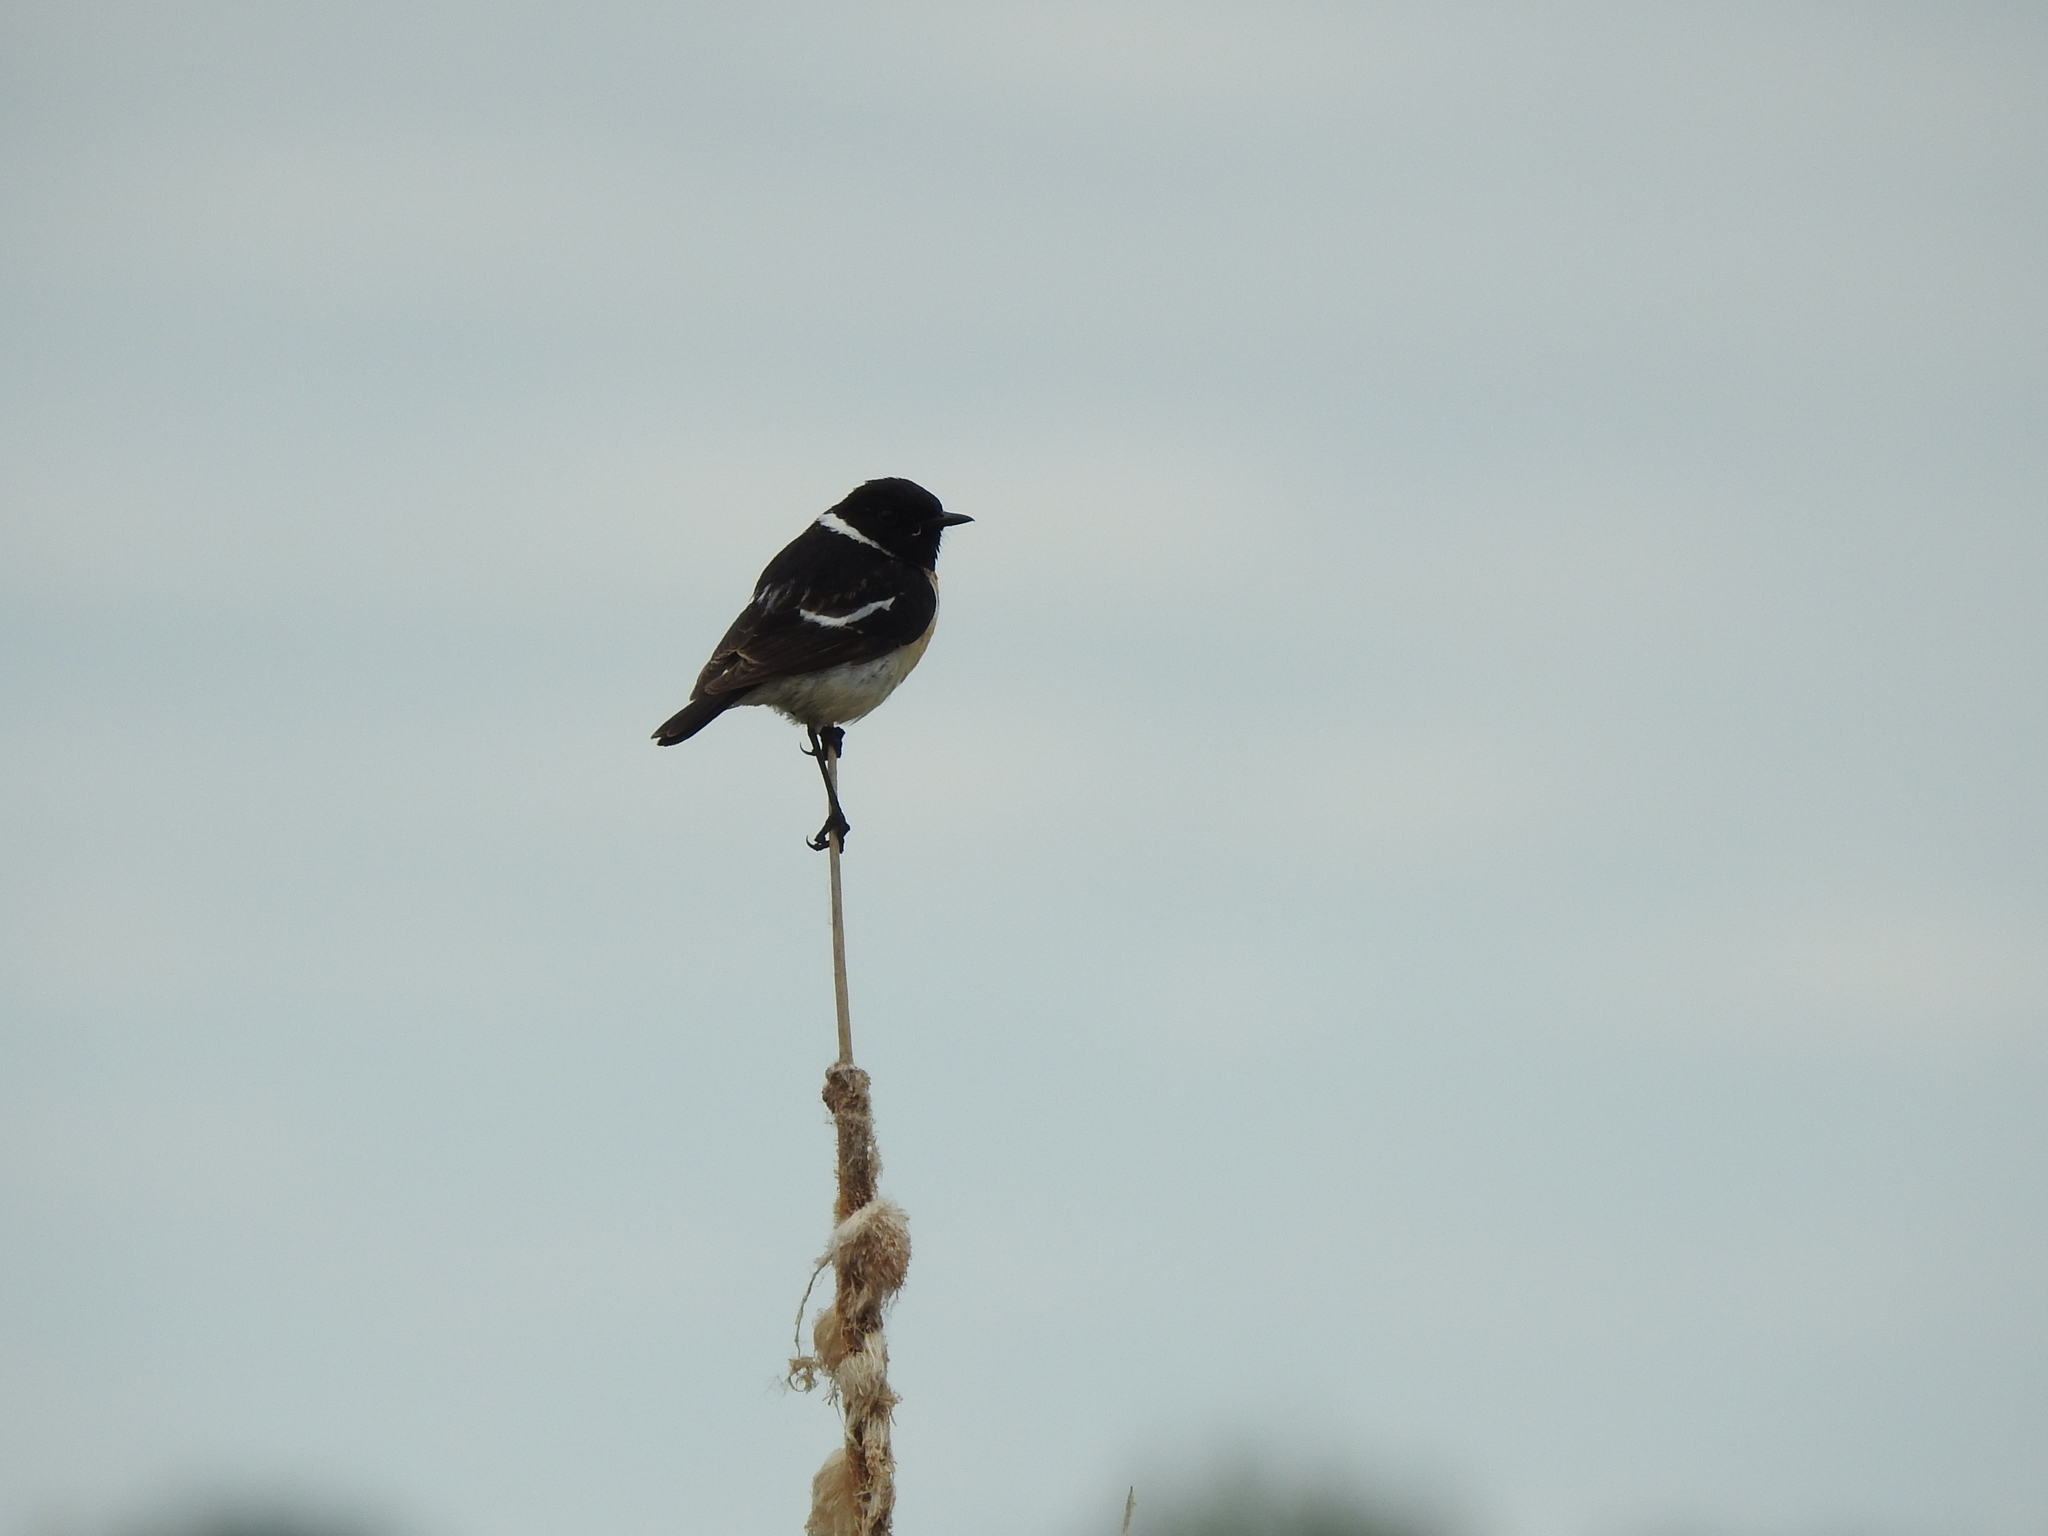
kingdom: Animalia
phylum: Chordata
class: Aves
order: Passeriformes
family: Muscicapidae
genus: Saxicola
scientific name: Saxicola maurus
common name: Siberian stonechat
